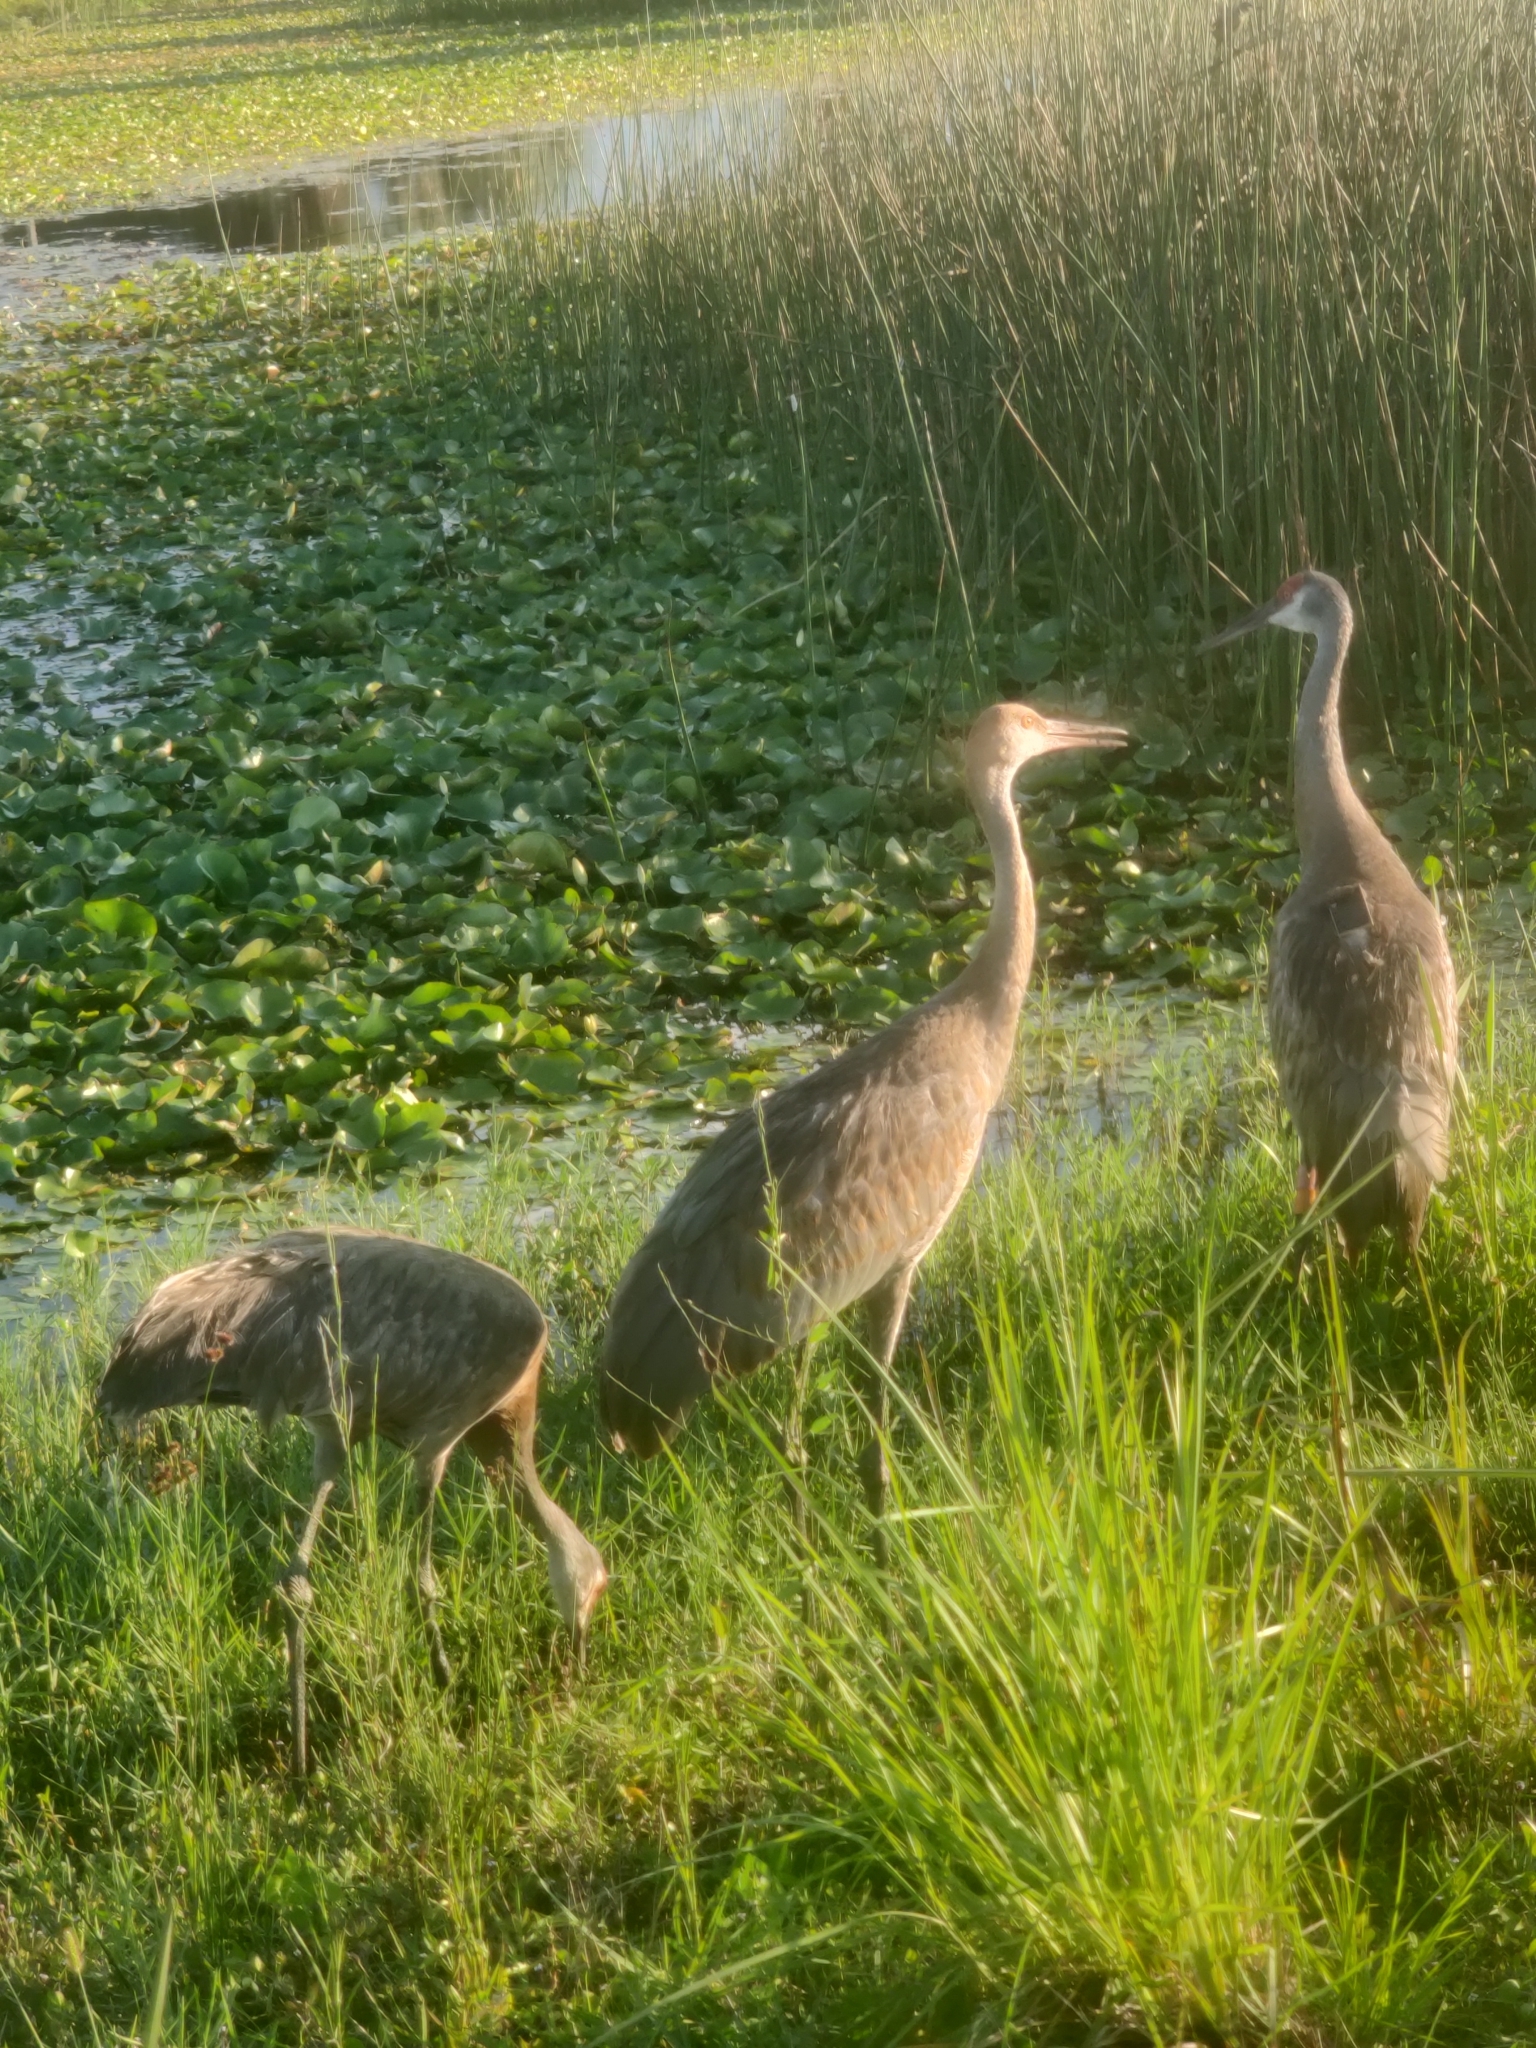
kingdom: Animalia
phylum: Chordata
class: Aves
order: Gruiformes
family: Gruidae
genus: Grus
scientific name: Grus canadensis
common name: Sandhill crane
